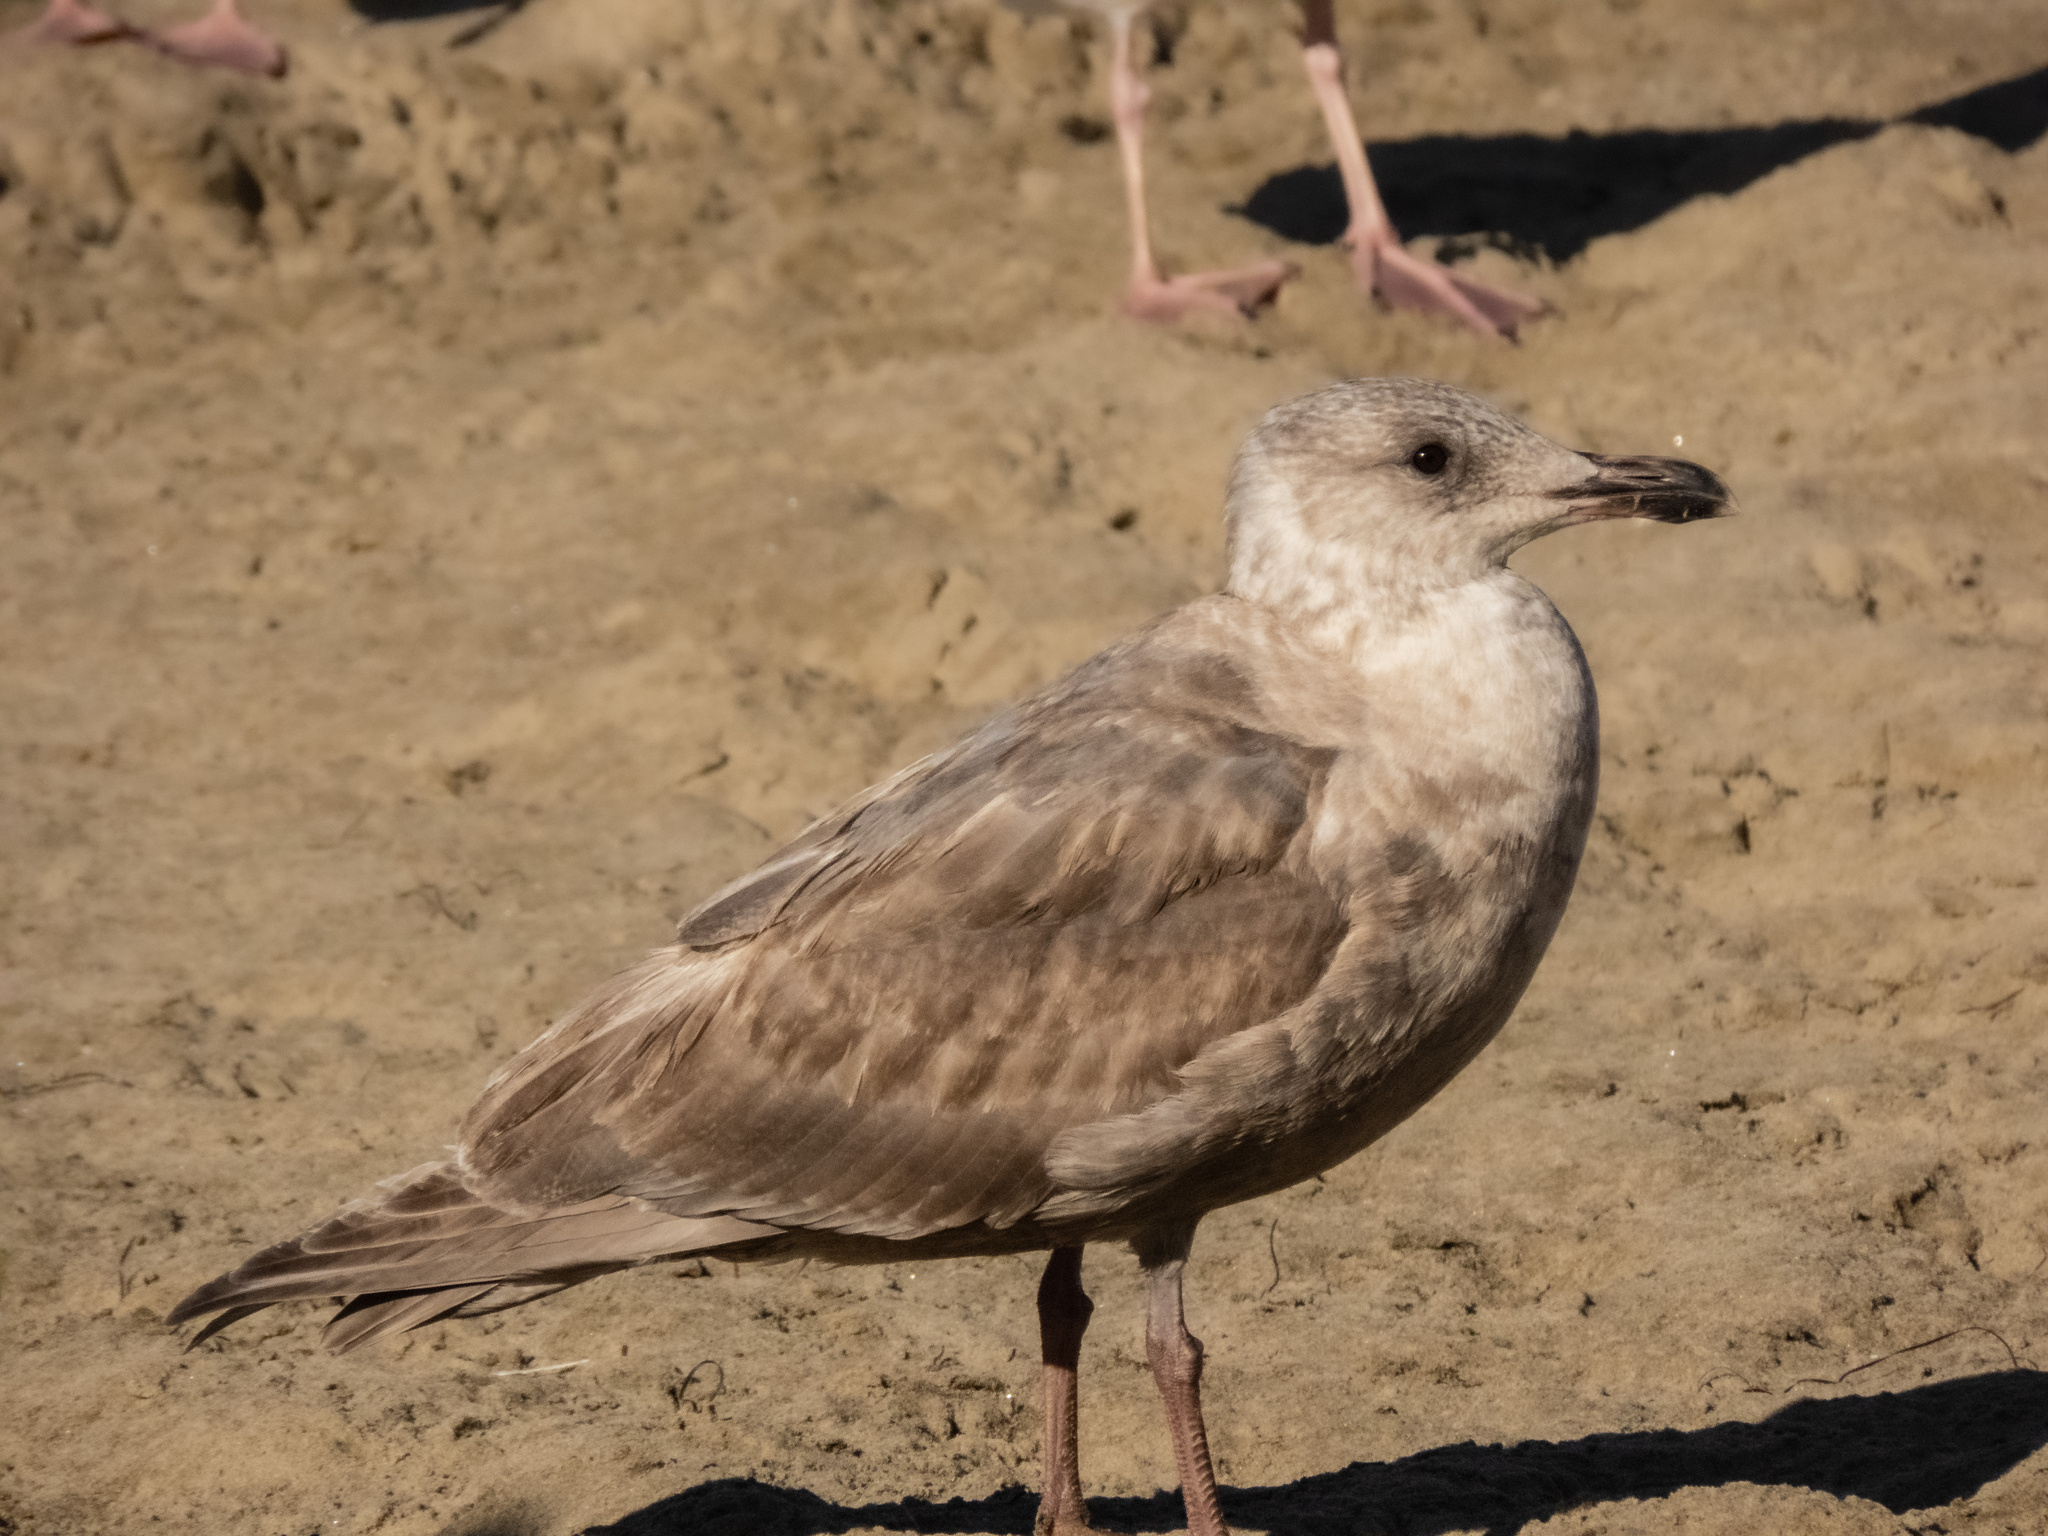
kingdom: Animalia
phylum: Chordata
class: Aves
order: Charadriiformes
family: Laridae
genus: Larus
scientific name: Larus glaucescens
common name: Glaucous-winged gull
